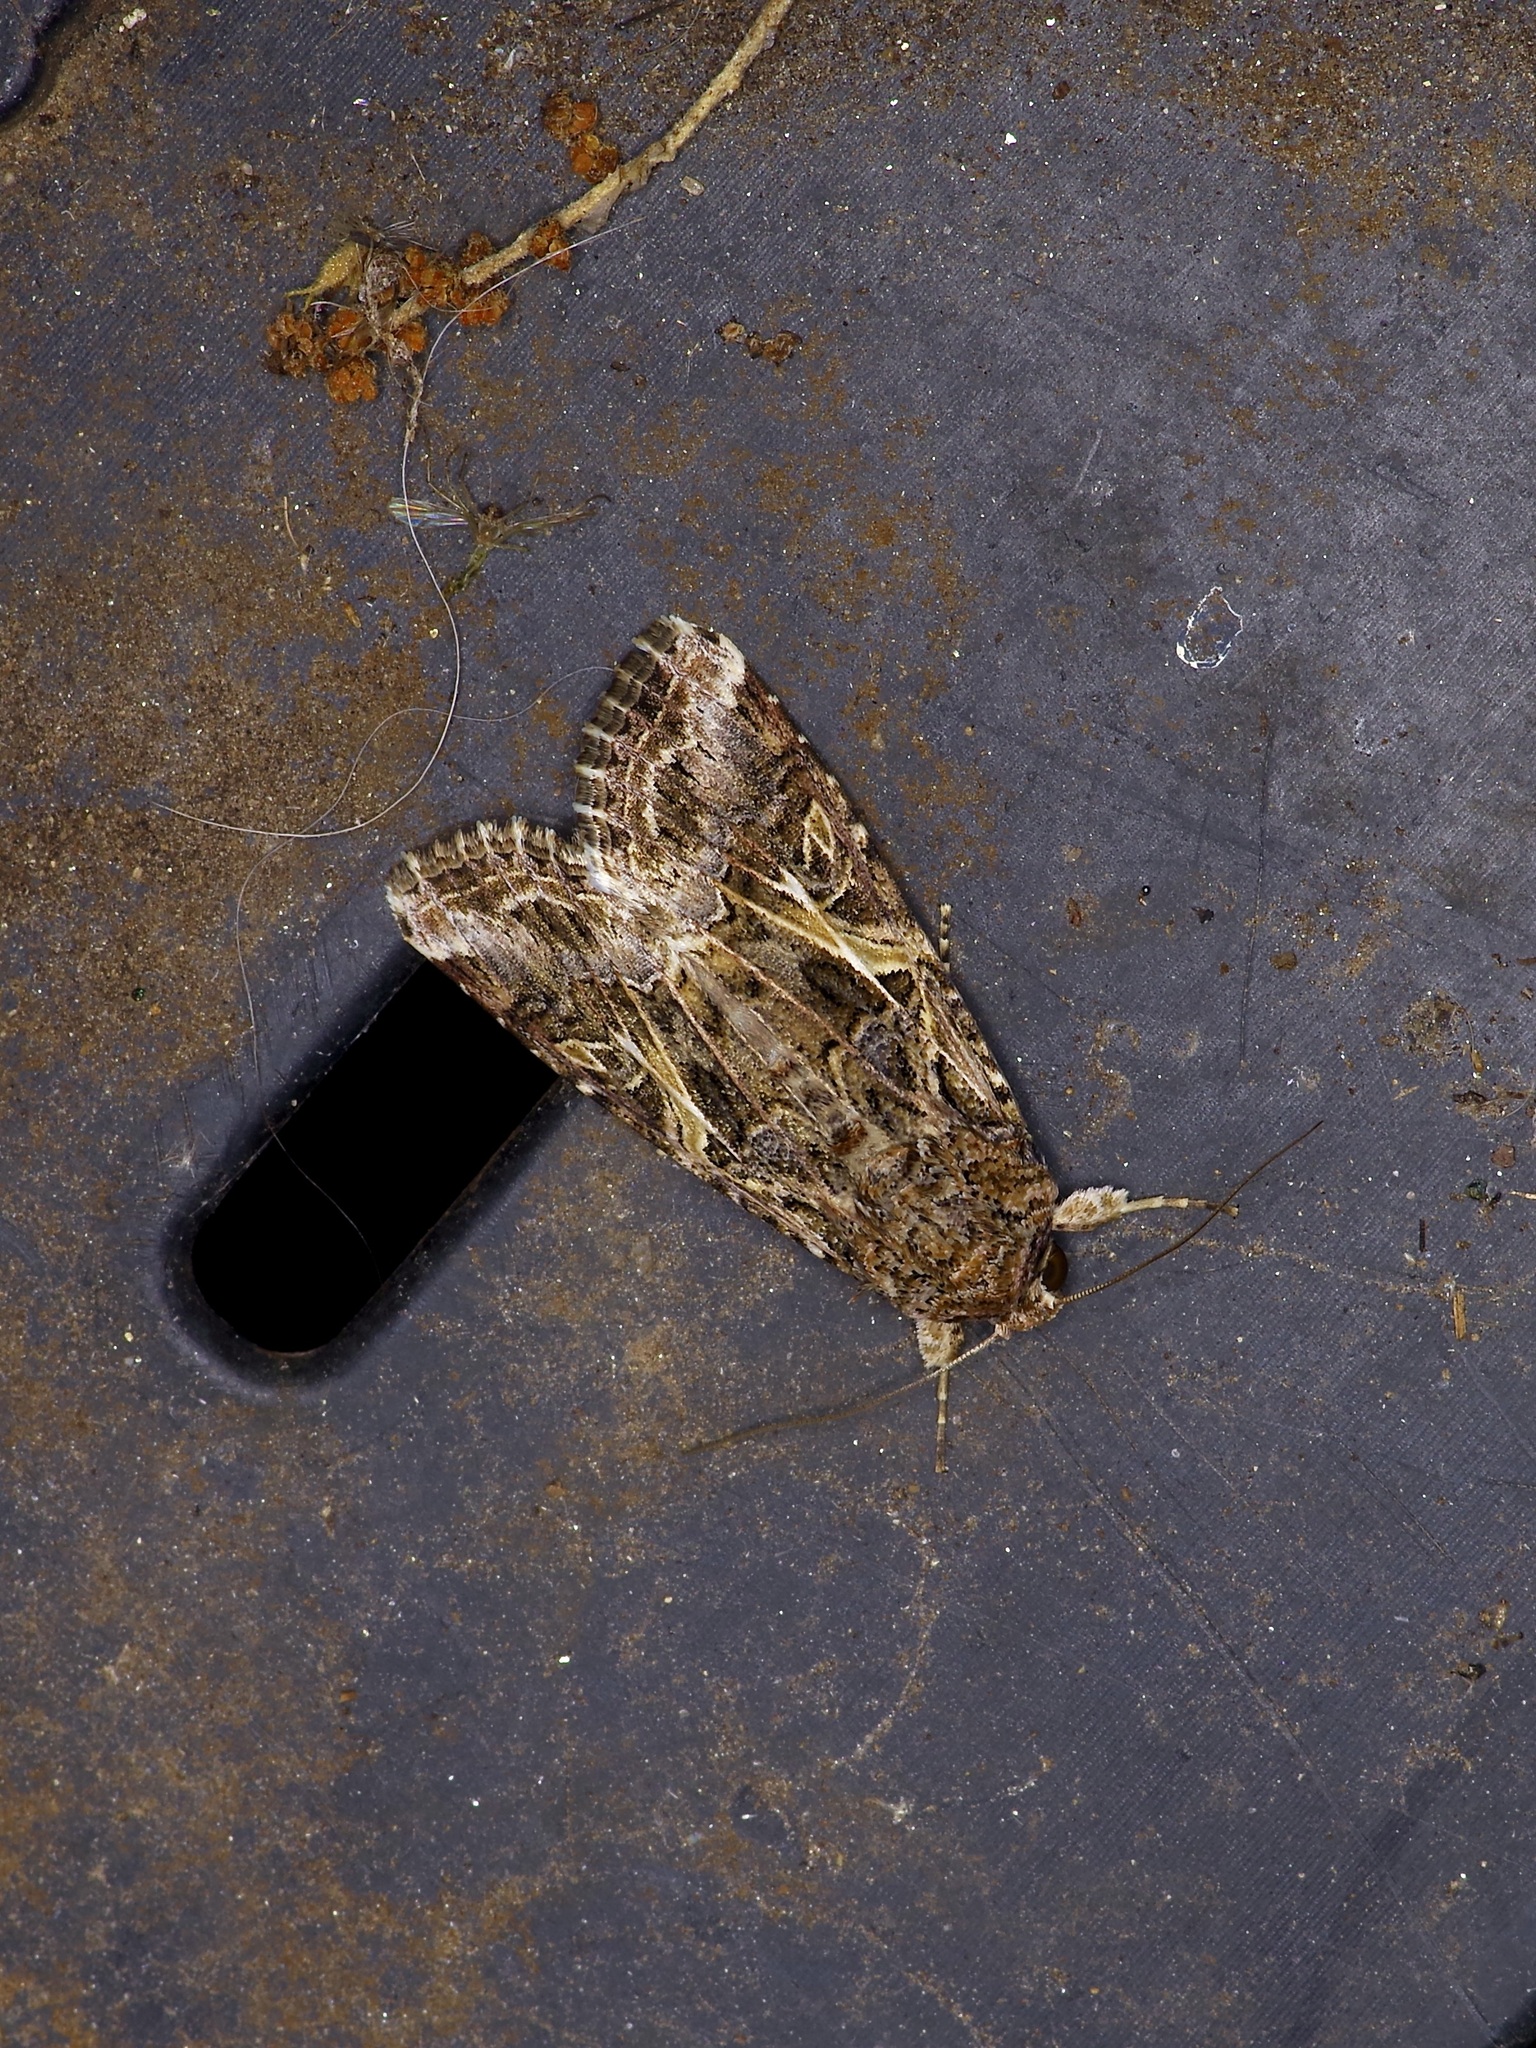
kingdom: Animalia
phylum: Arthropoda
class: Insecta
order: Lepidoptera
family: Noctuidae
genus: Spodoptera
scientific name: Spodoptera ornithogalli
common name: Yellow-striped armyworm
